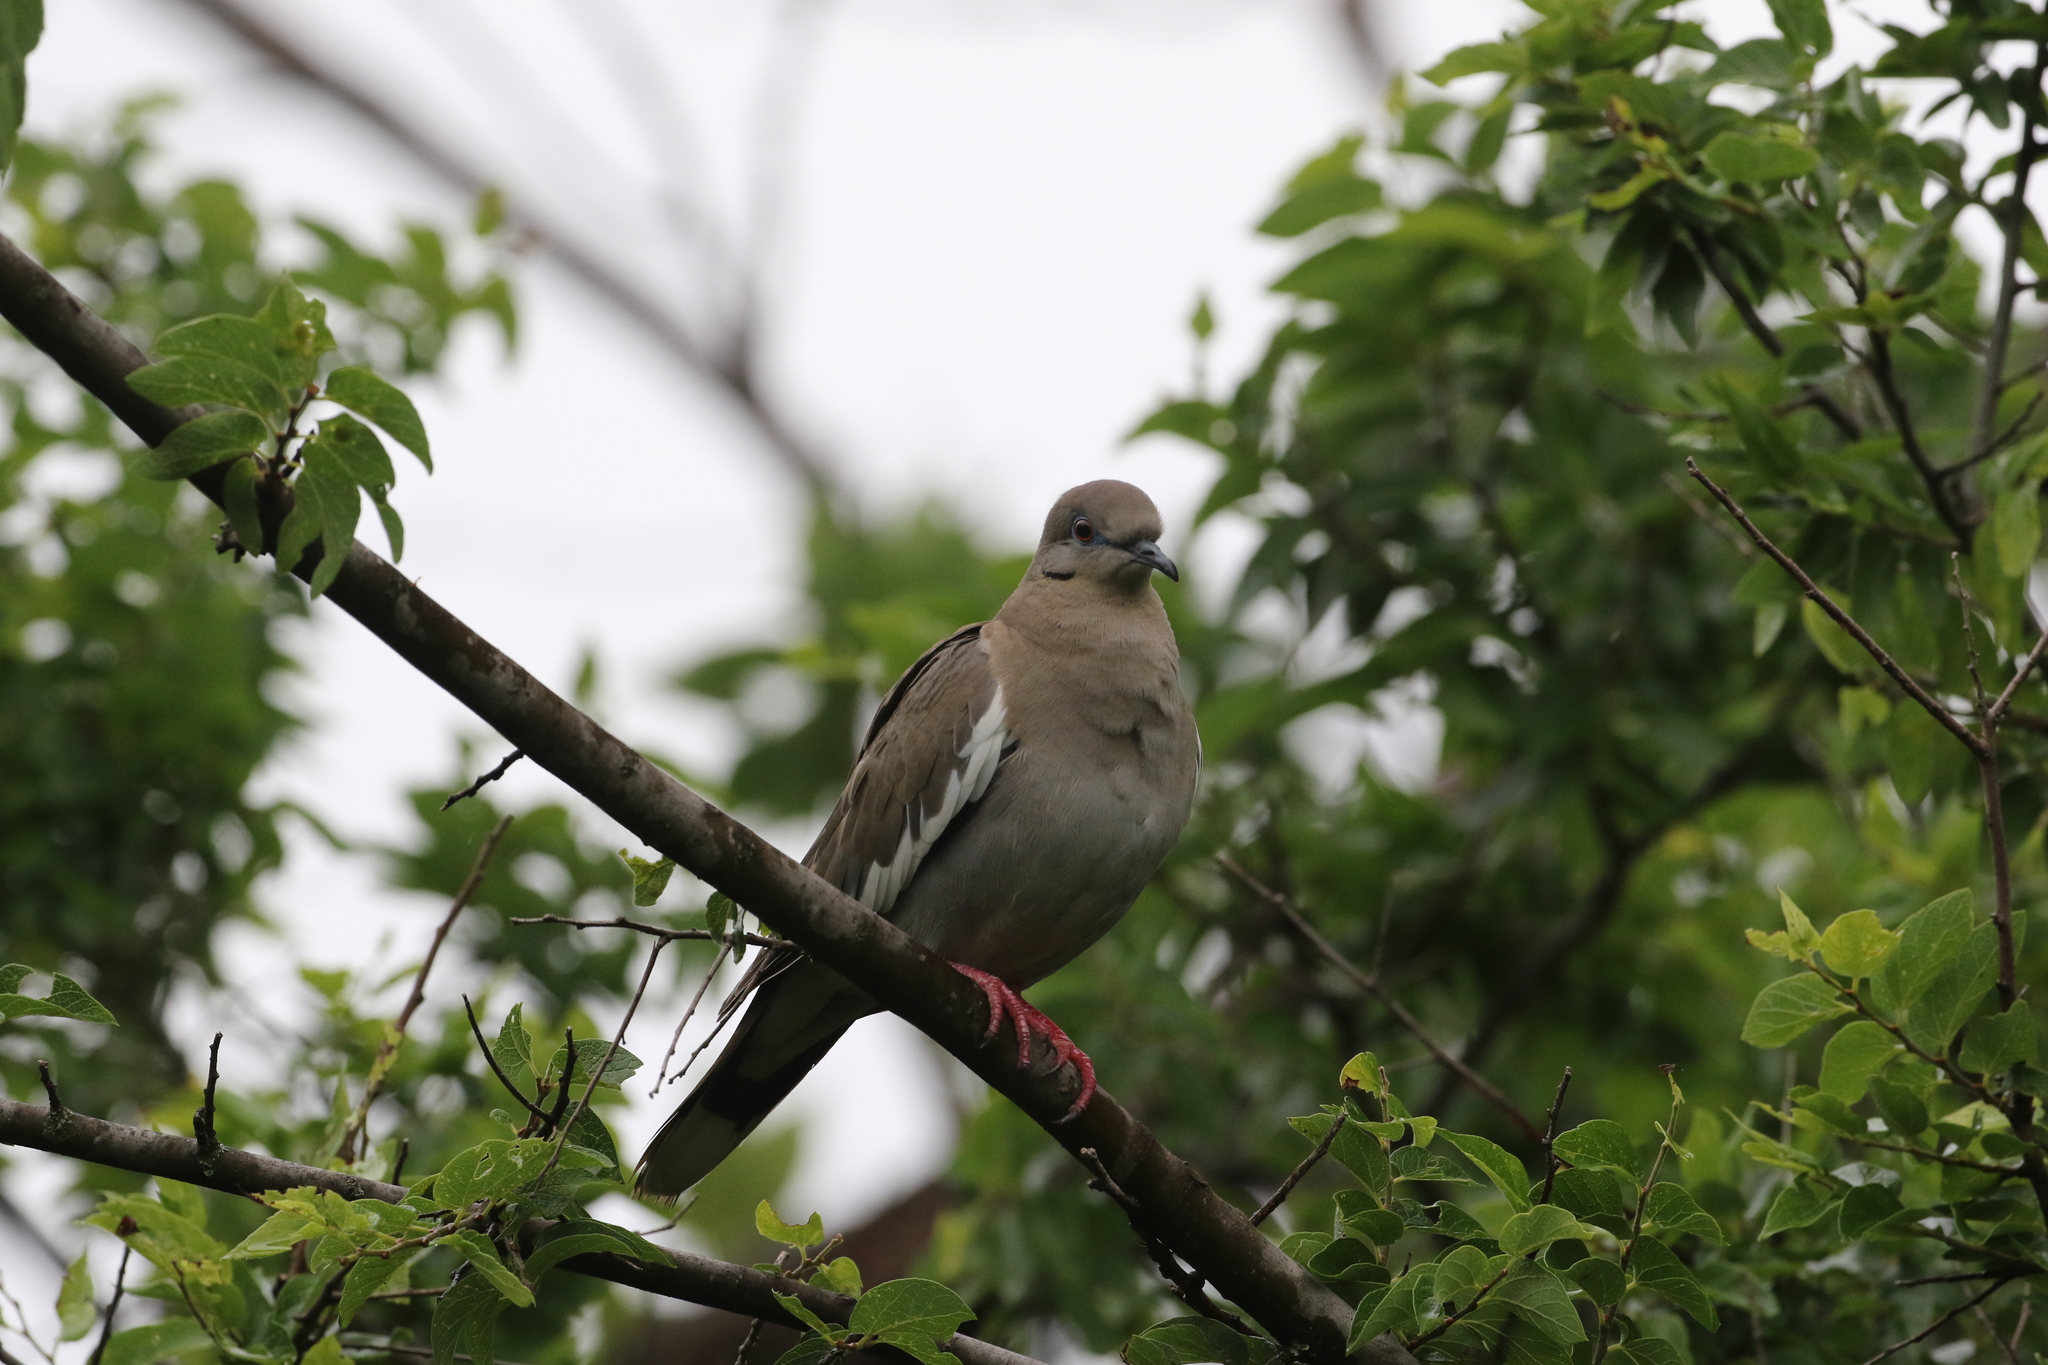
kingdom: Animalia
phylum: Chordata
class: Aves
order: Columbiformes
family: Columbidae
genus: Zenaida
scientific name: Zenaida asiatica
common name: White-winged dove
